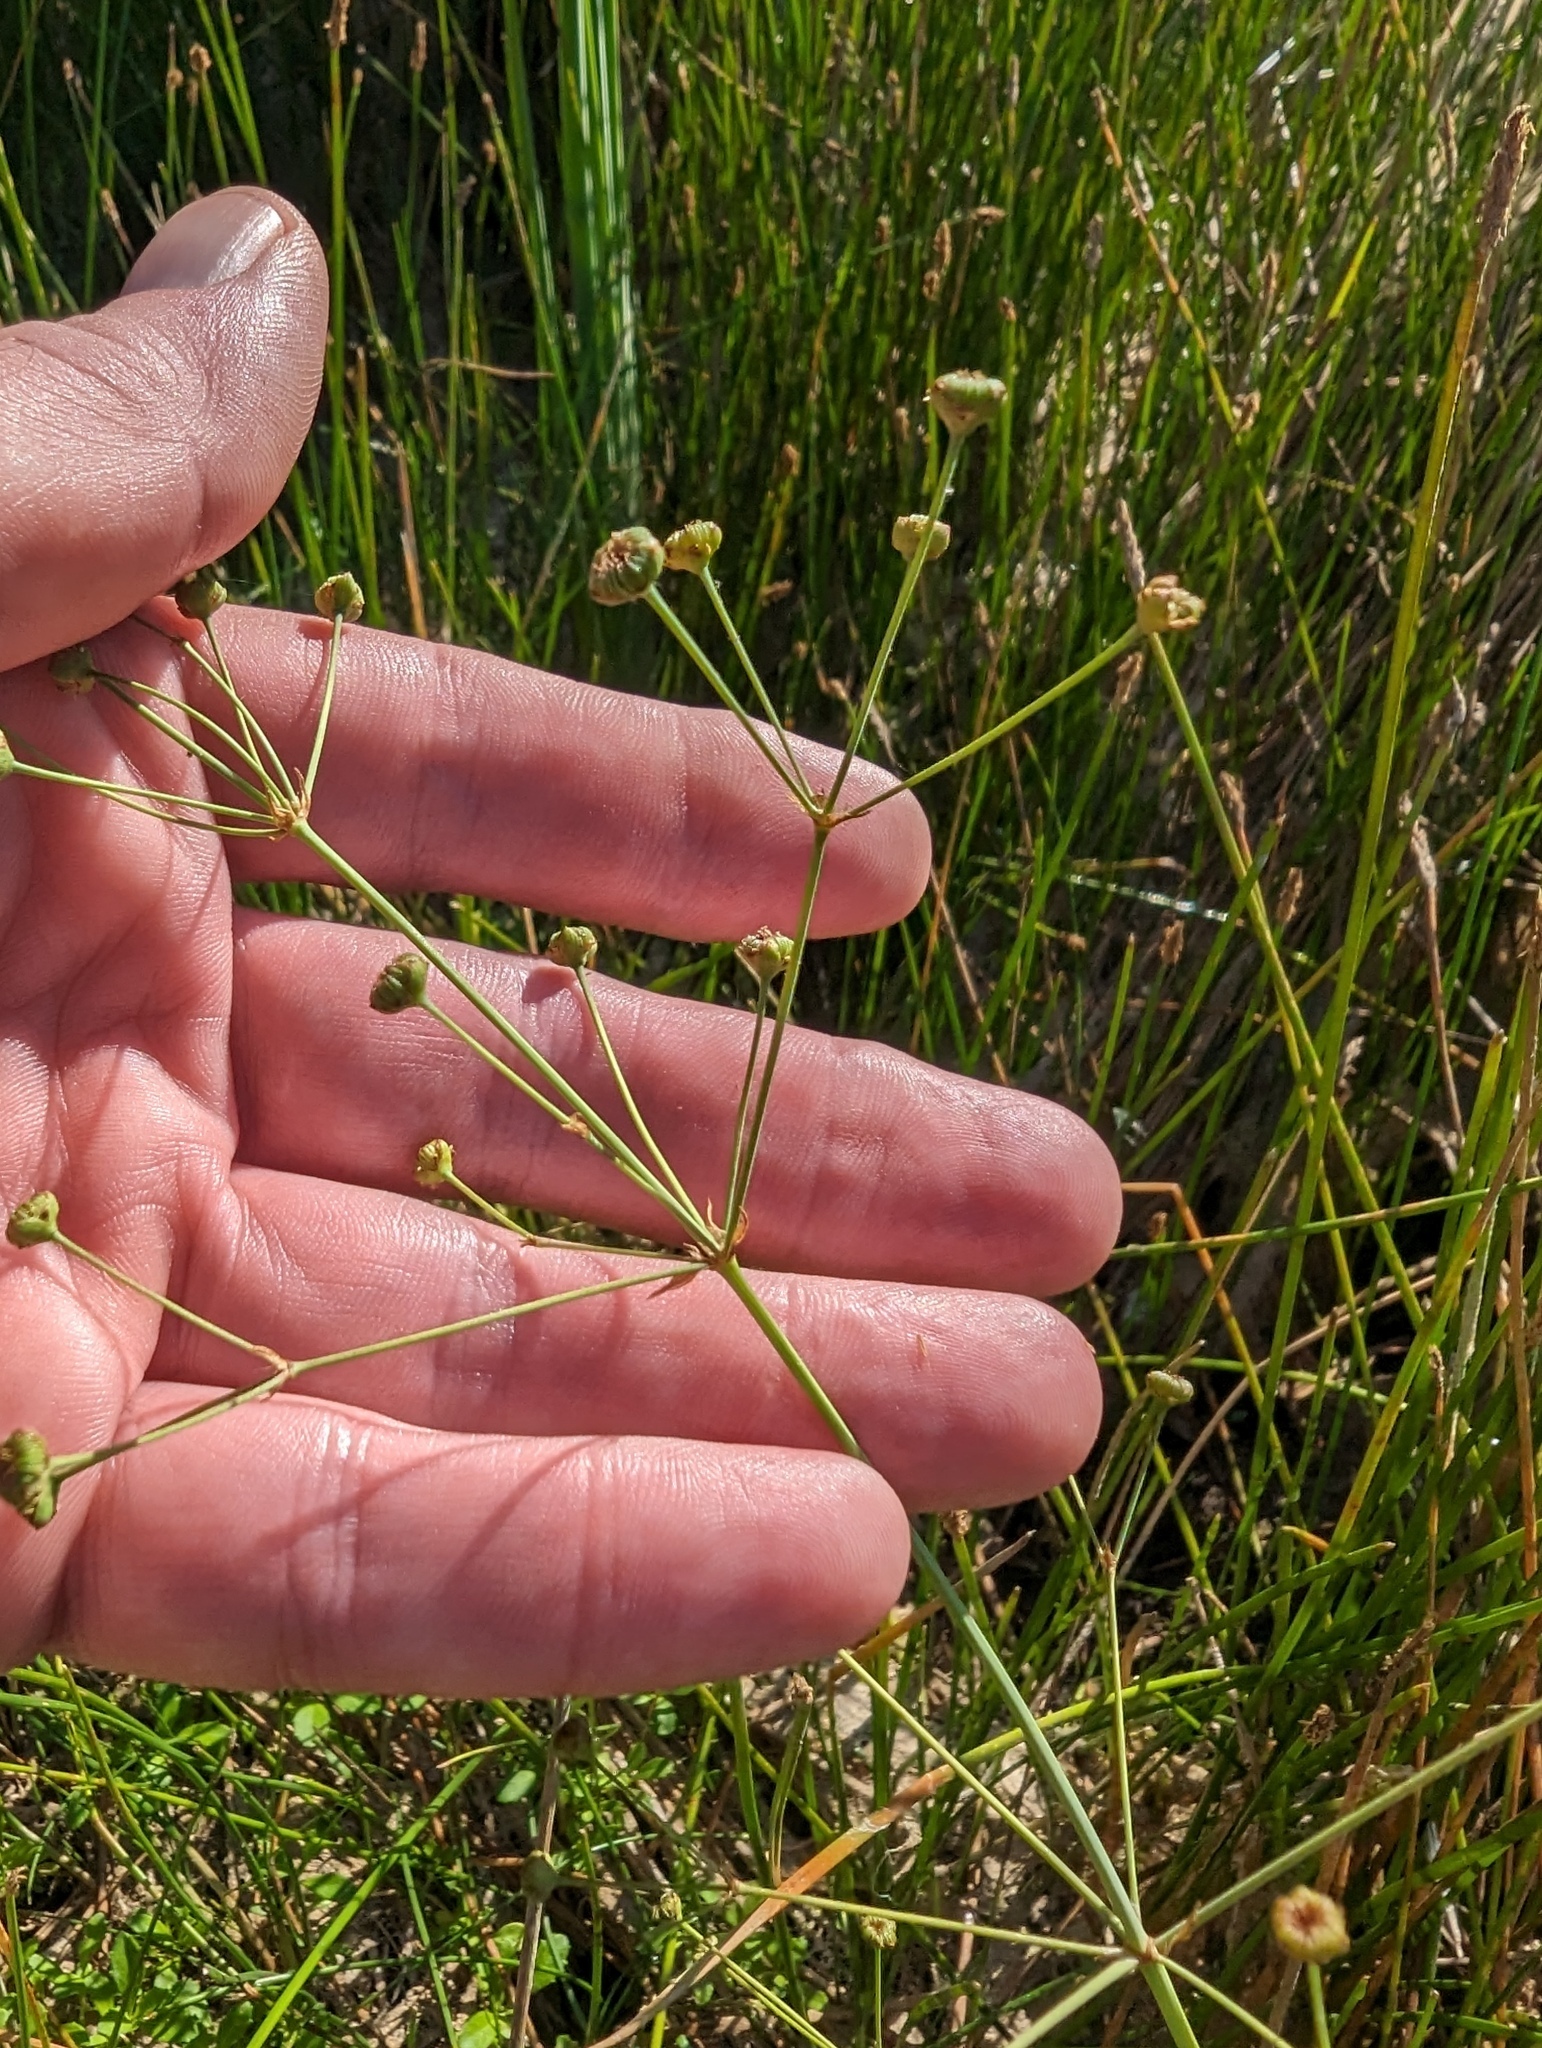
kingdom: Plantae
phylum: Tracheophyta
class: Liliopsida
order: Alismatales
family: Alismataceae
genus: Alisma
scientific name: Alisma triviale
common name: Northern water-plantain
